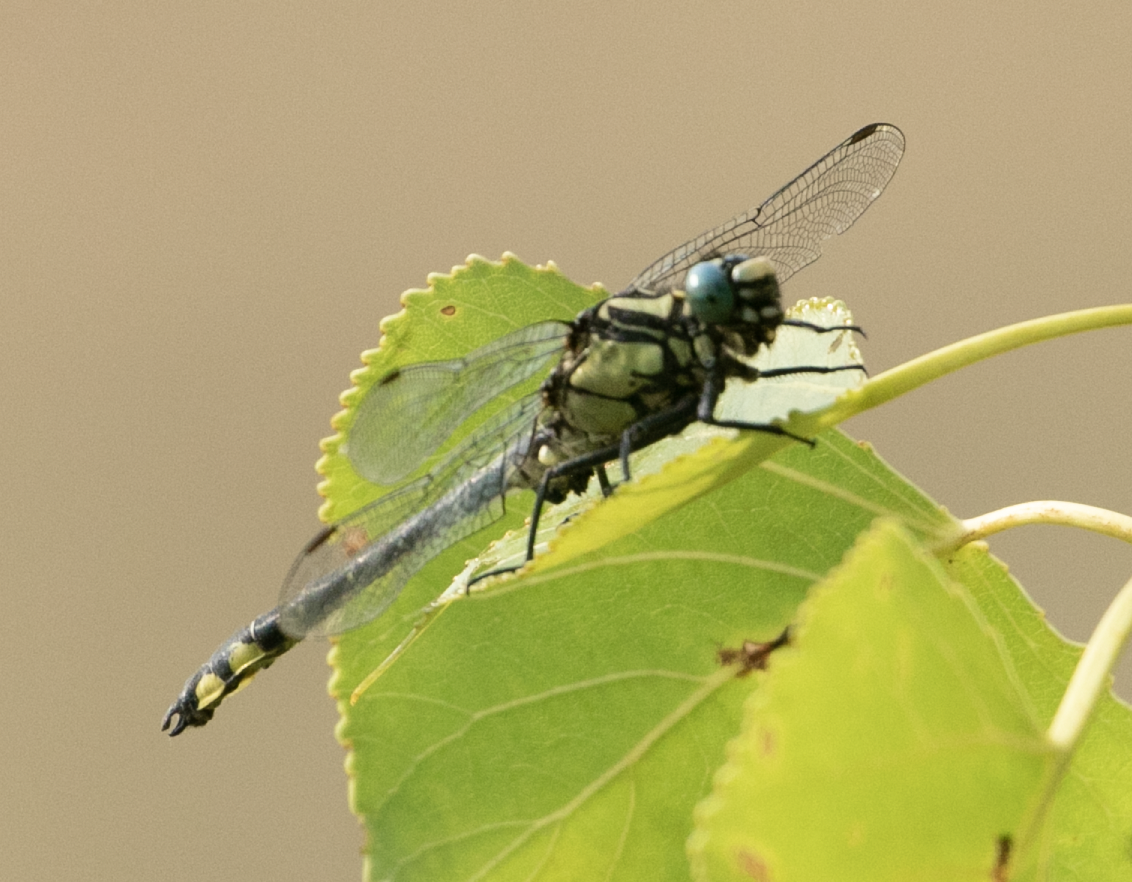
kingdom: Animalia
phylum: Arthropoda
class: Insecta
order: Odonata
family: Gomphidae
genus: Gomphus
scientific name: Gomphus vulgatissimus
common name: Club-tailed dragonfly
